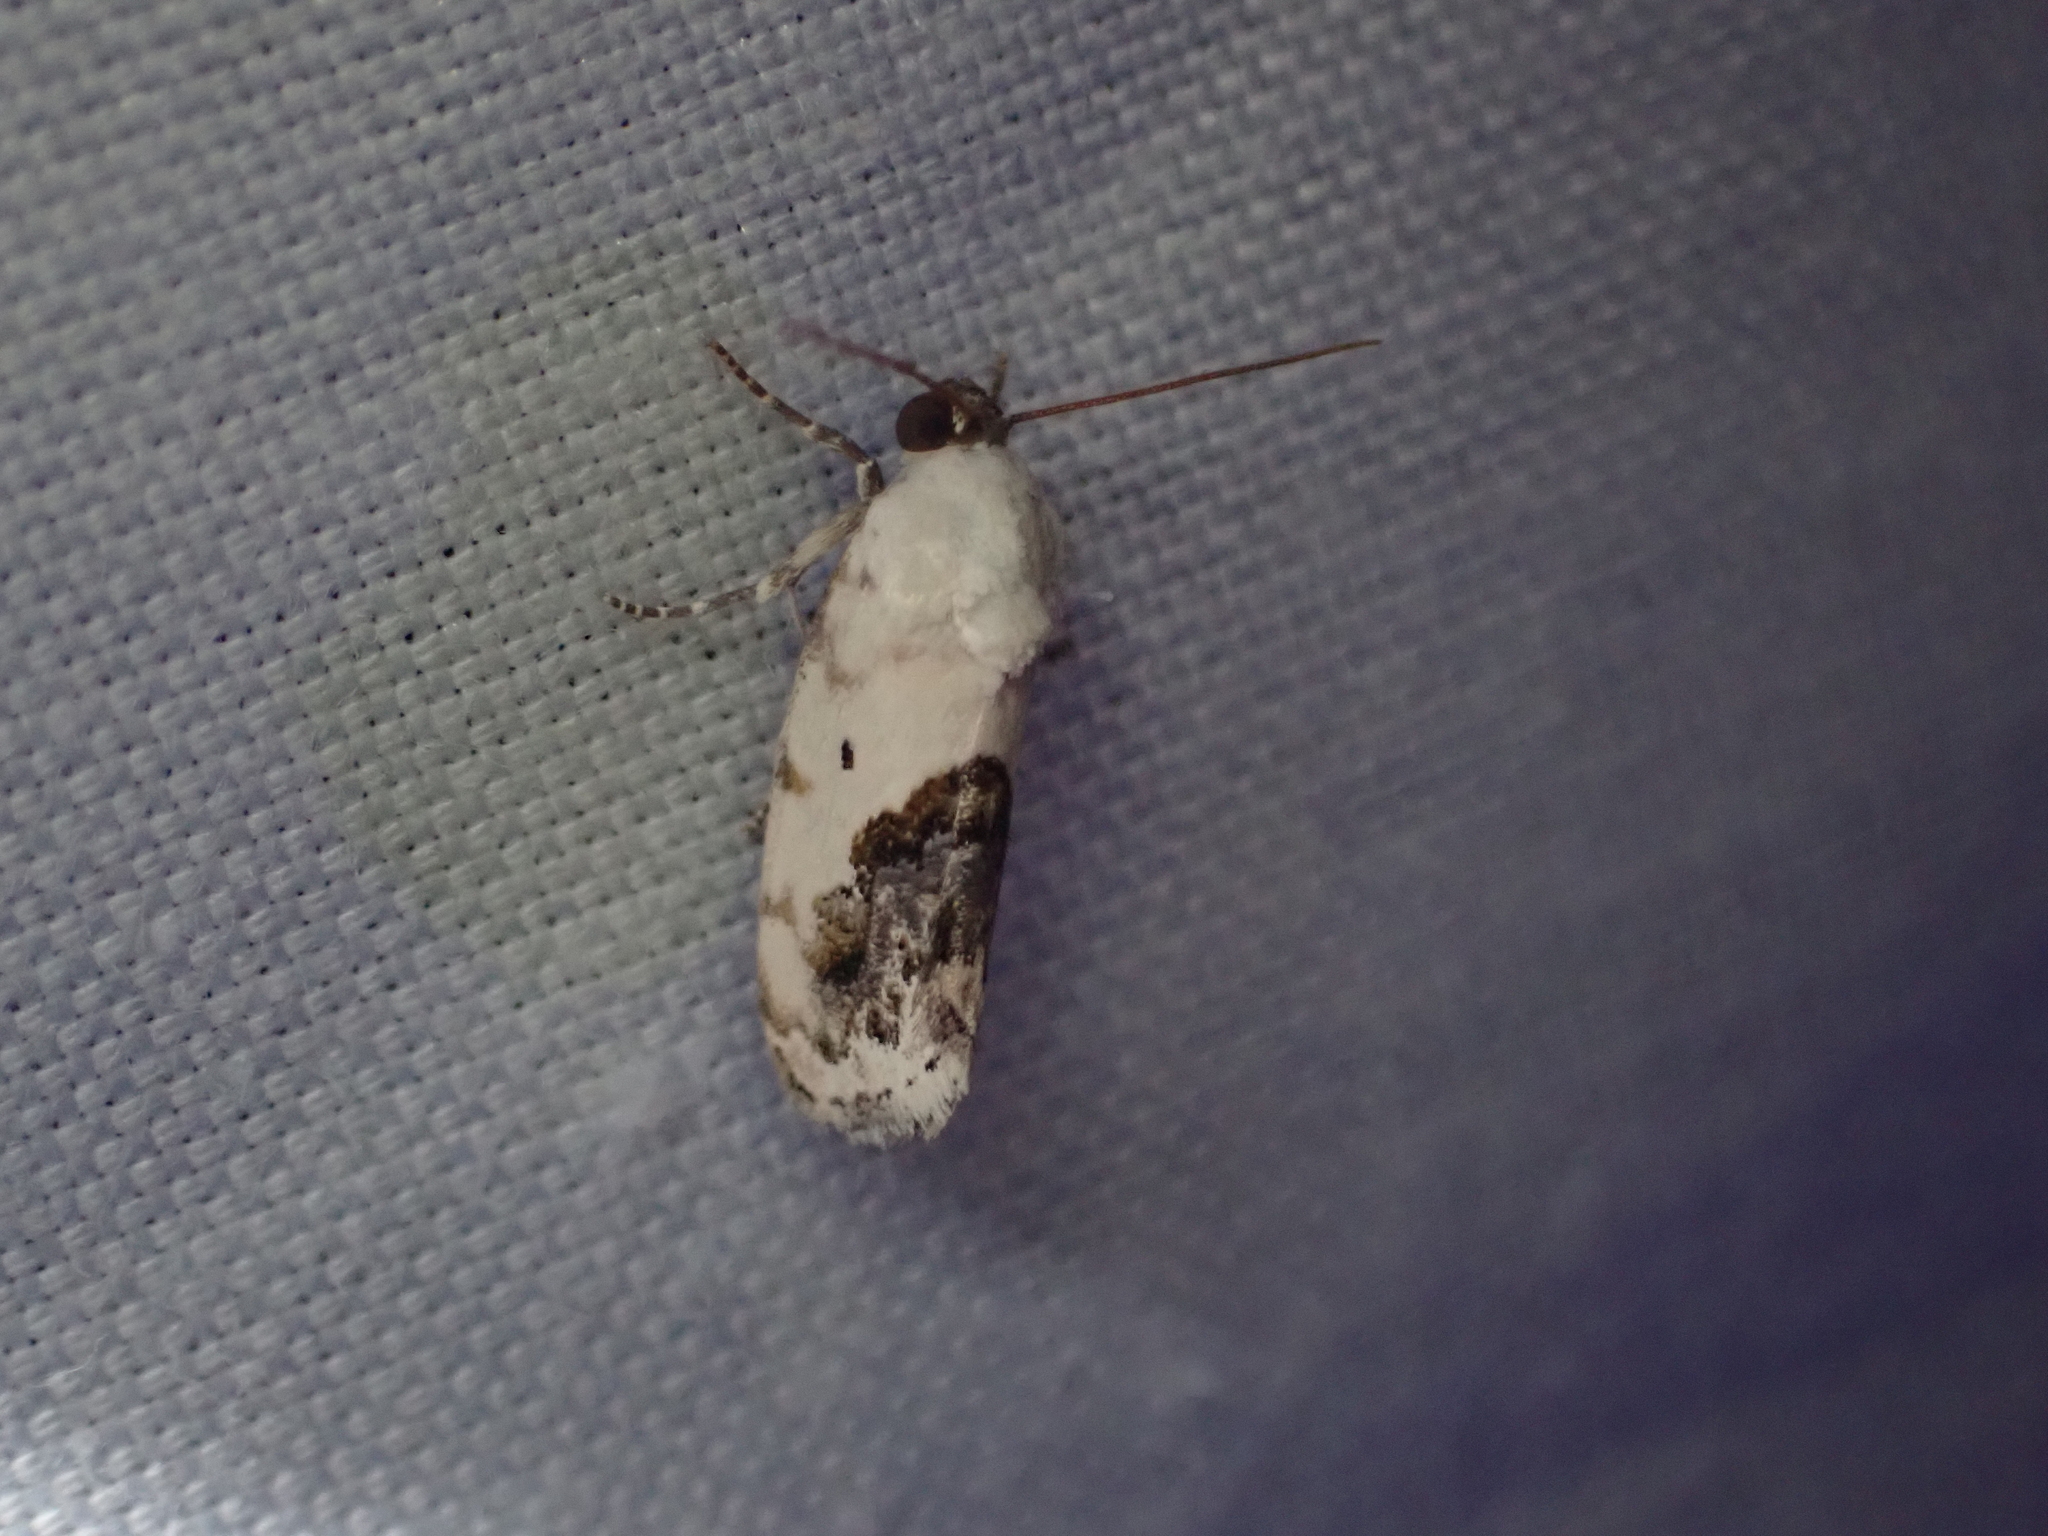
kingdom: Animalia
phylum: Arthropoda
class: Insecta
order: Lepidoptera
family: Noctuidae
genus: Acontia
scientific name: Acontia erastrioides
